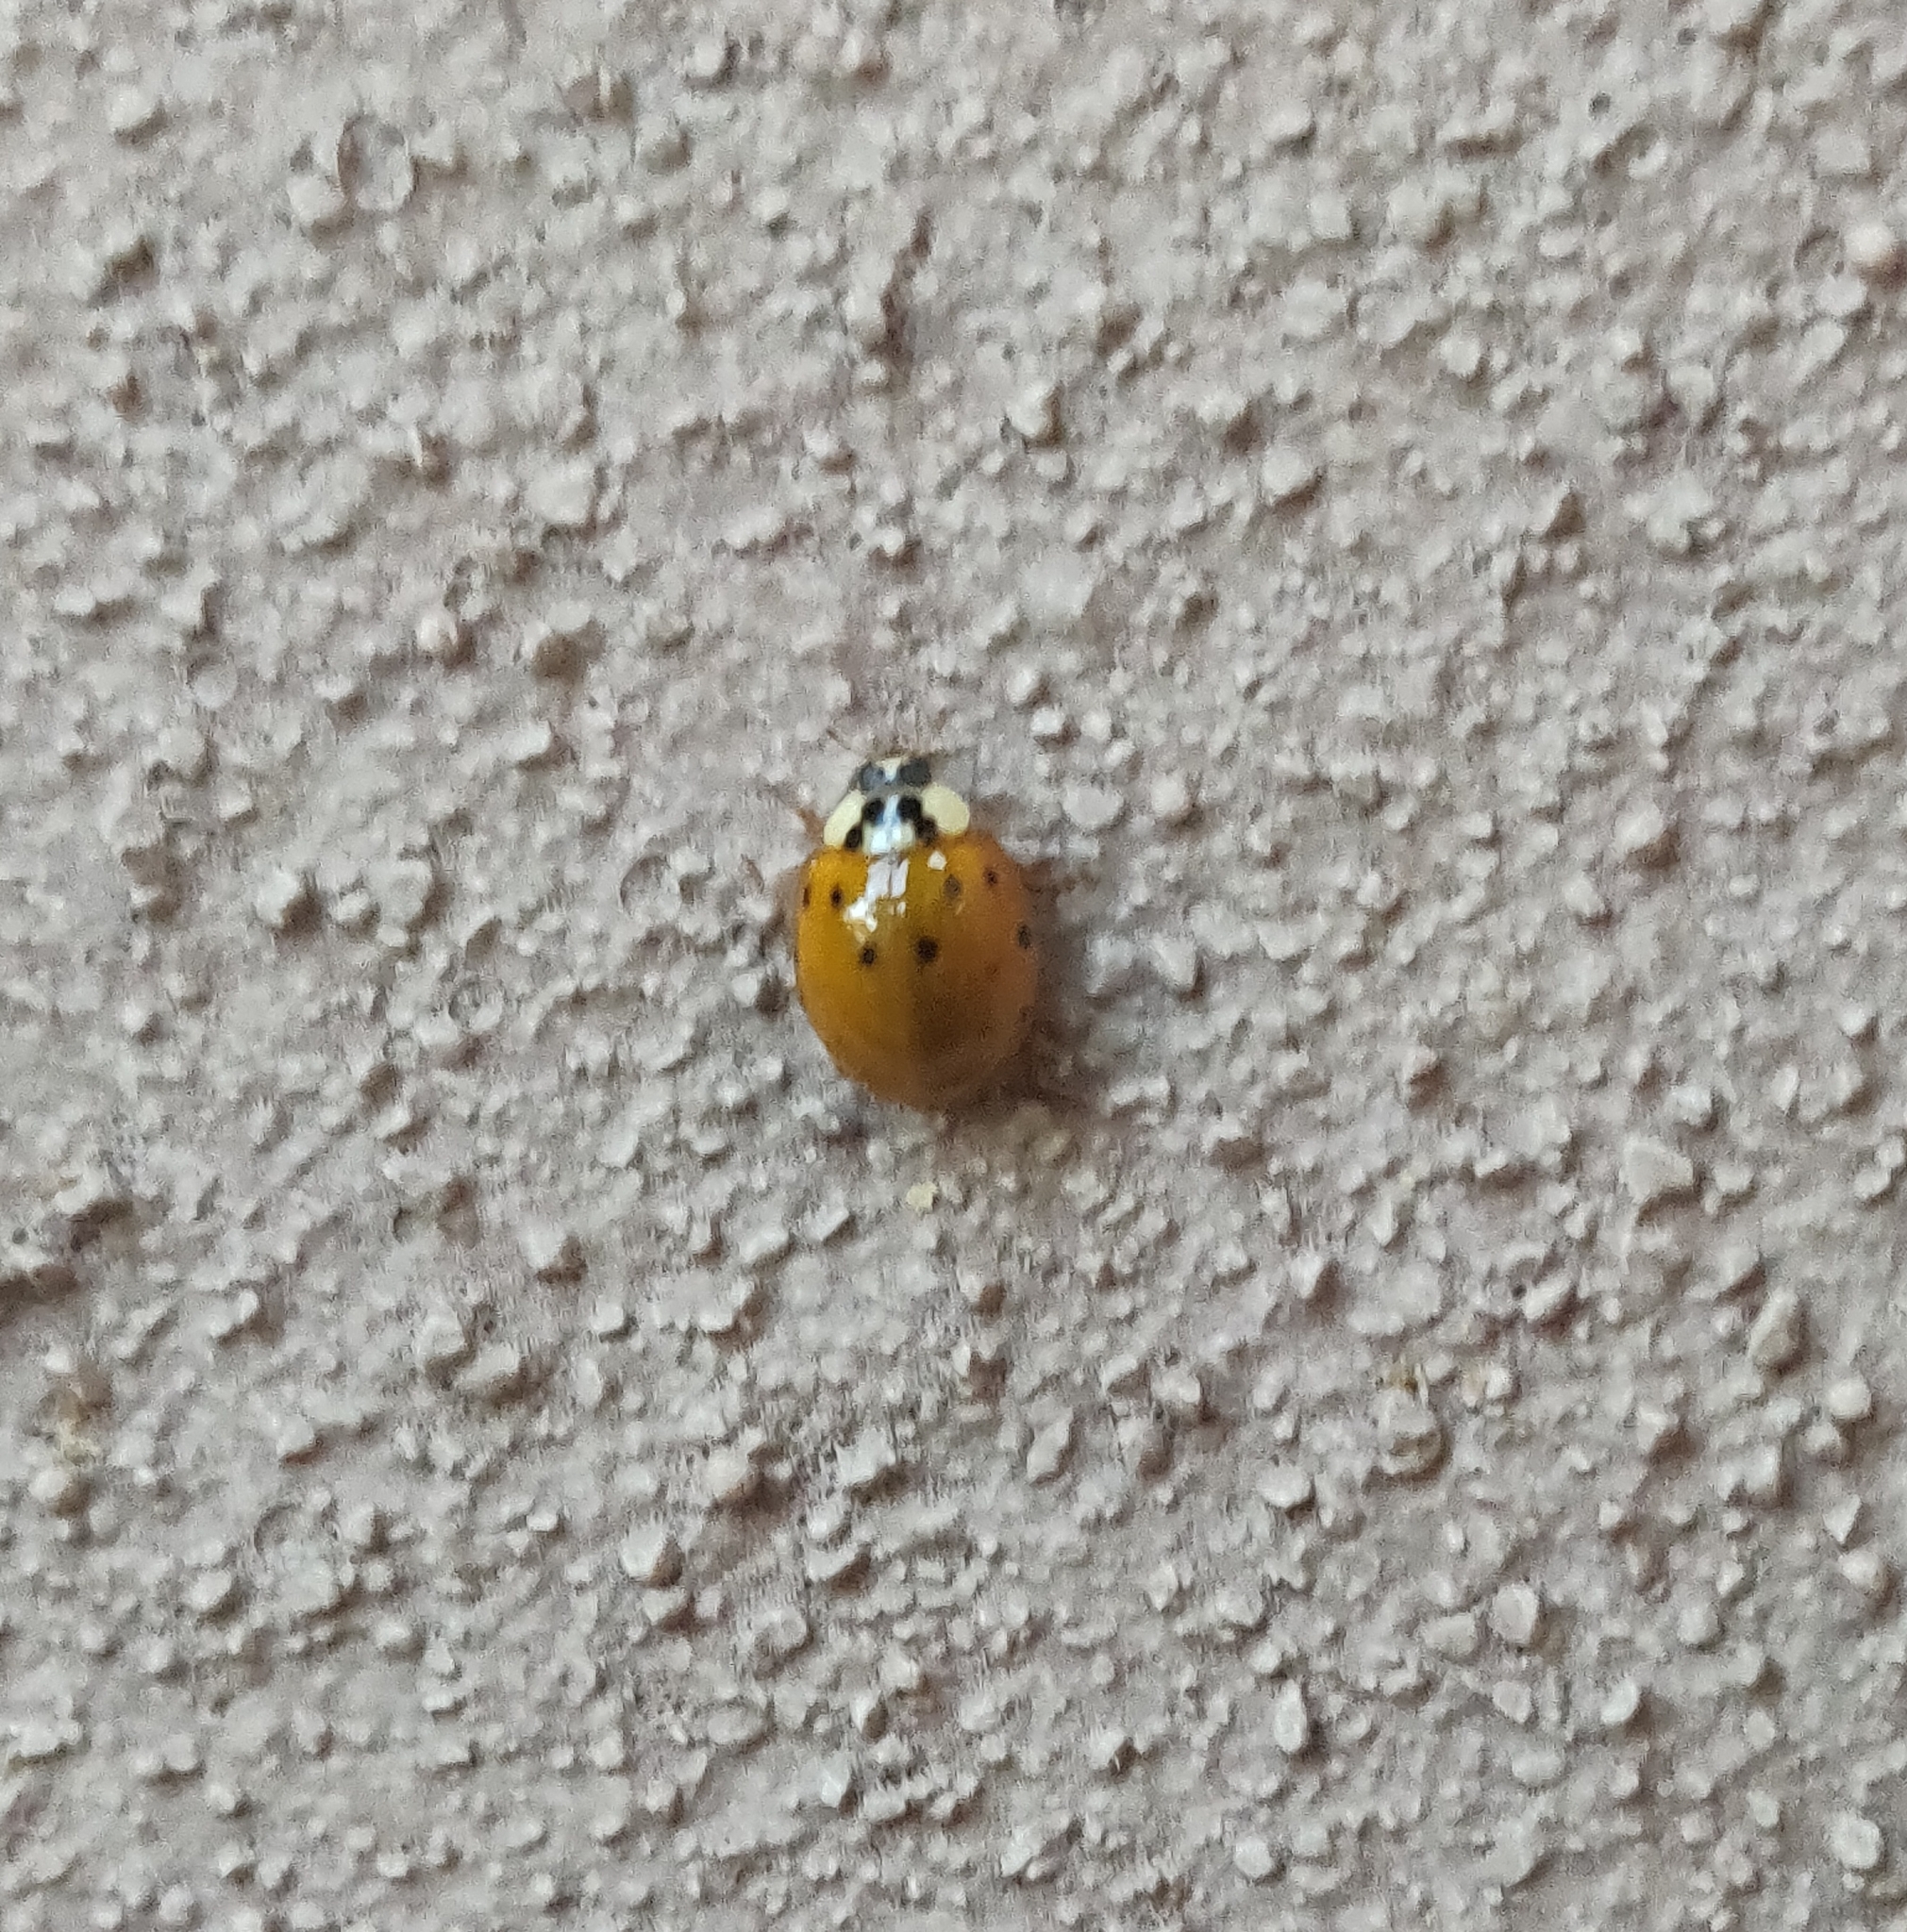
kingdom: Animalia
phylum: Arthropoda
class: Insecta
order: Coleoptera
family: Coccinellidae
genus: Harmonia
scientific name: Harmonia axyridis
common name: Harlequin ladybird
